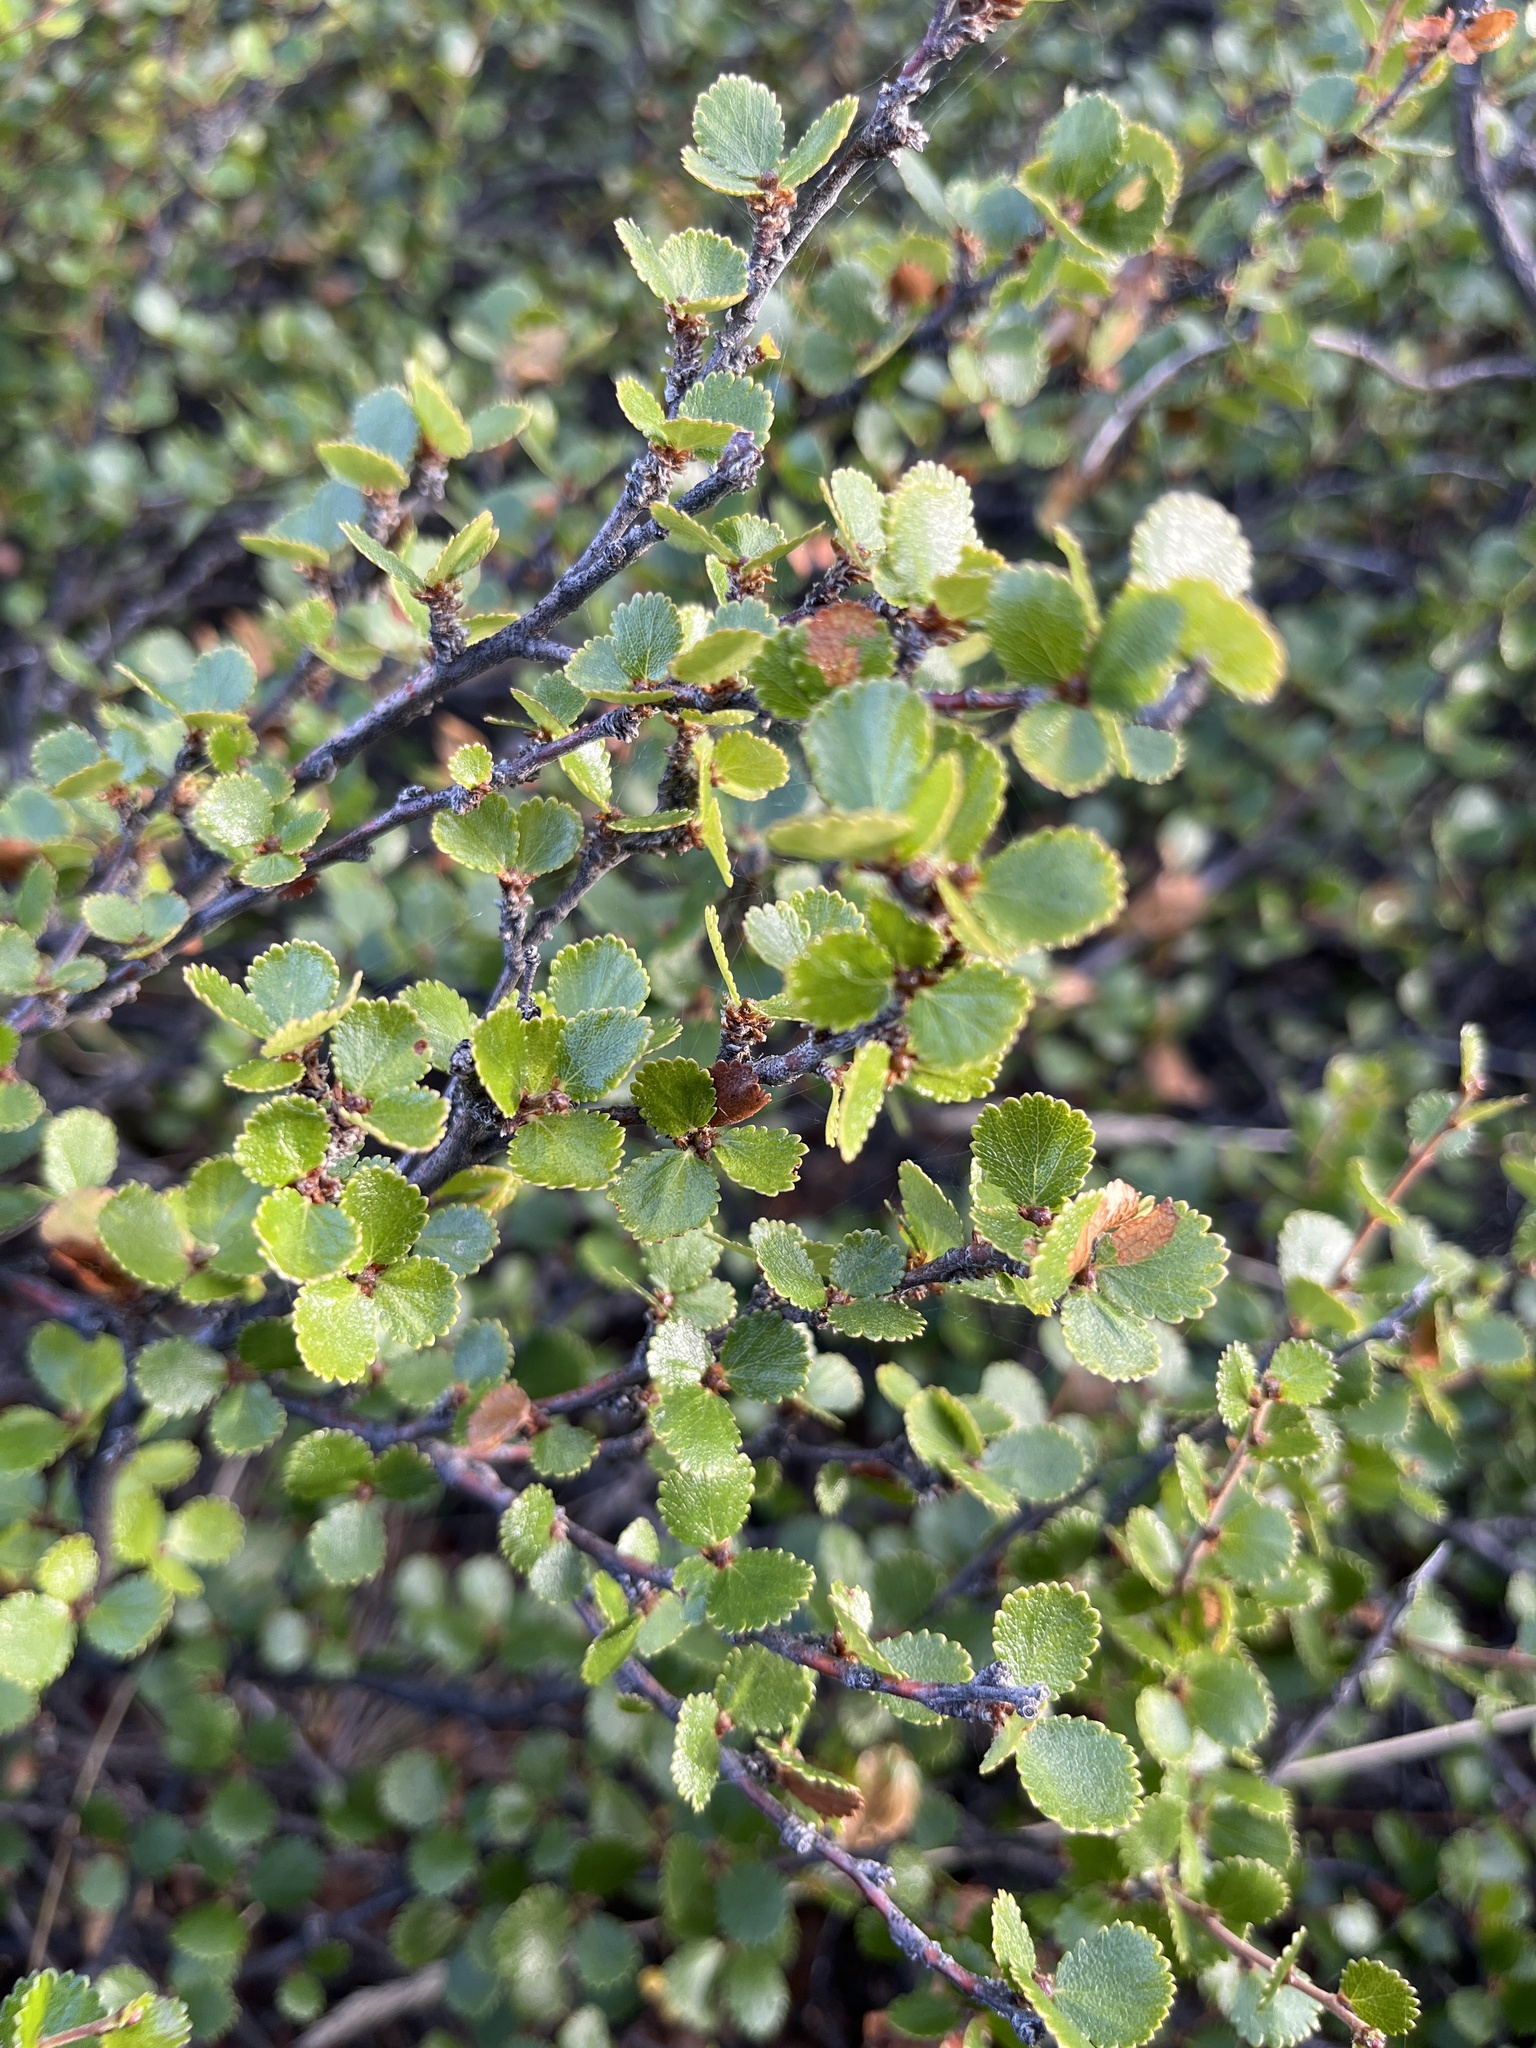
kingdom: Plantae
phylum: Tracheophyta
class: Magnoliopsida
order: Fagales
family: Betulaceae
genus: Betula
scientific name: Betula nana
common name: Arctic dwarf birch
